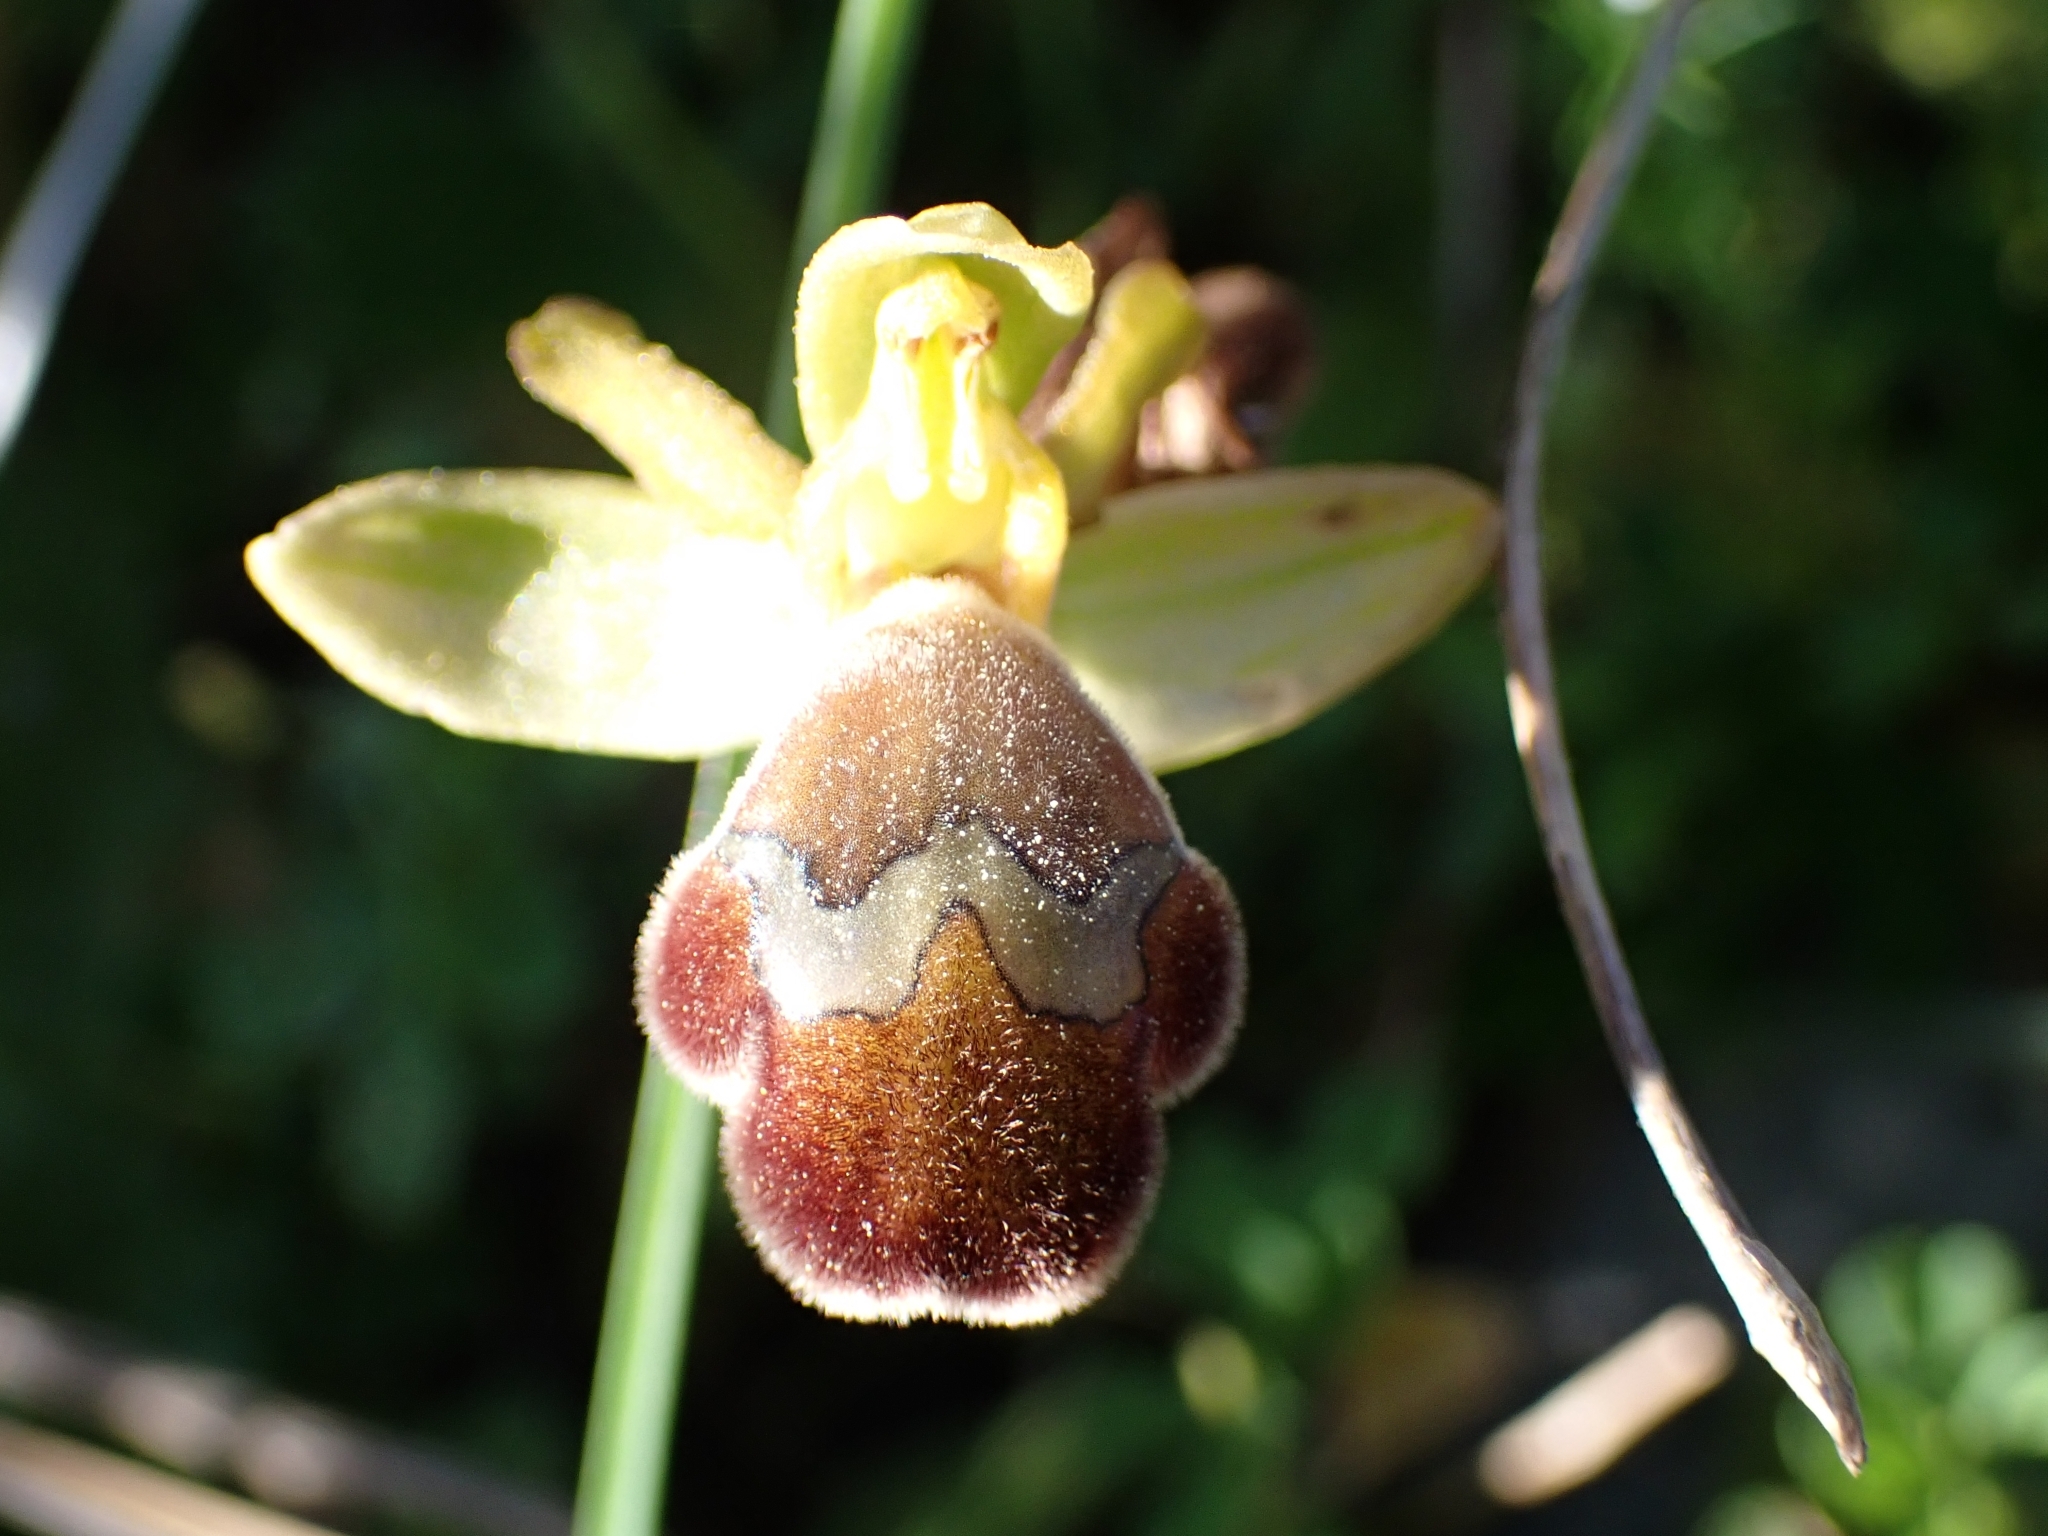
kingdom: Plantae
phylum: Tracheophyta
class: Liliopsida
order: Asparagales
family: Orchidaceae
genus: Ophrys
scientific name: Ophrys omegaifera
